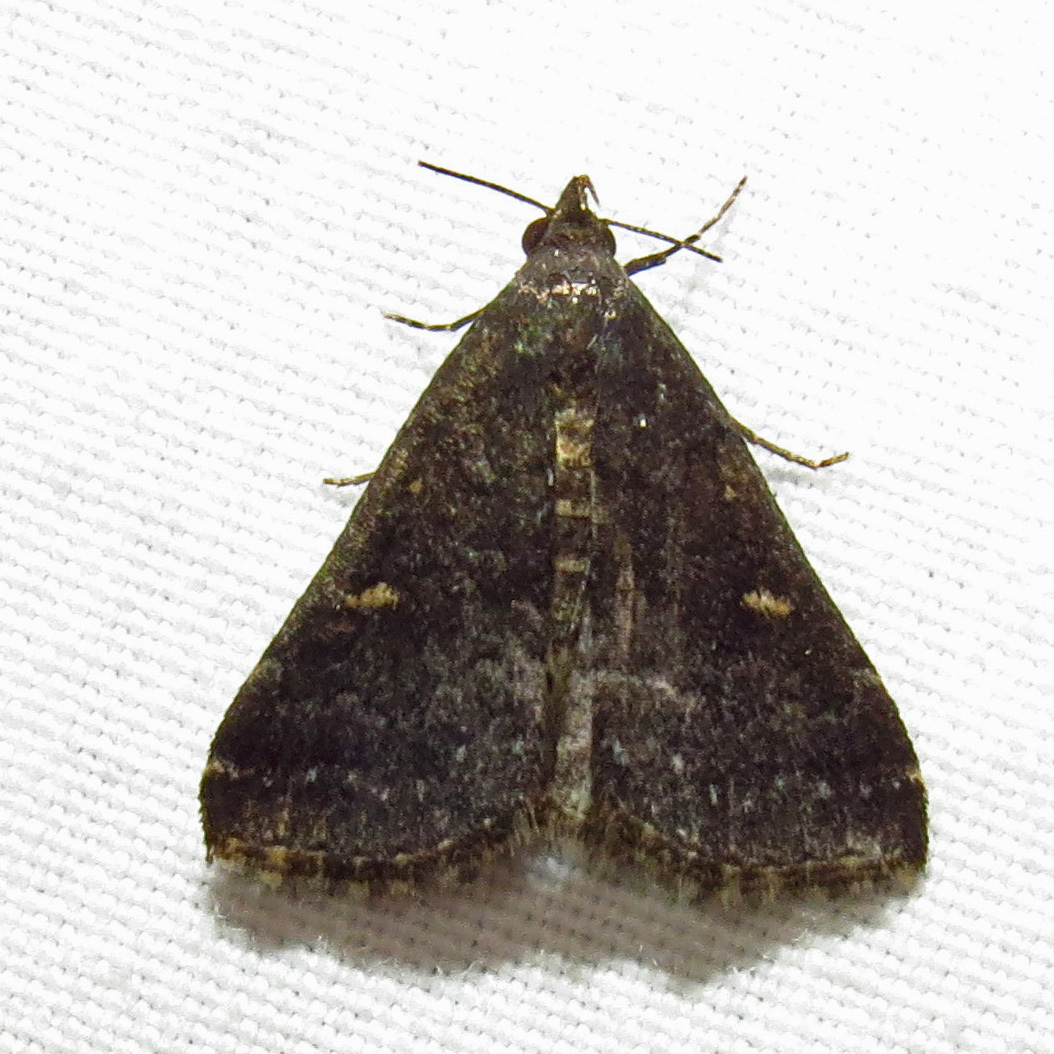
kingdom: Animalia
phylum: Arthropoda
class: Insecta
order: Lepidoptera
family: Erebidae
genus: Tetanolita
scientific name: Tetanolita mynesalis
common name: Smoky tetanolita moth
